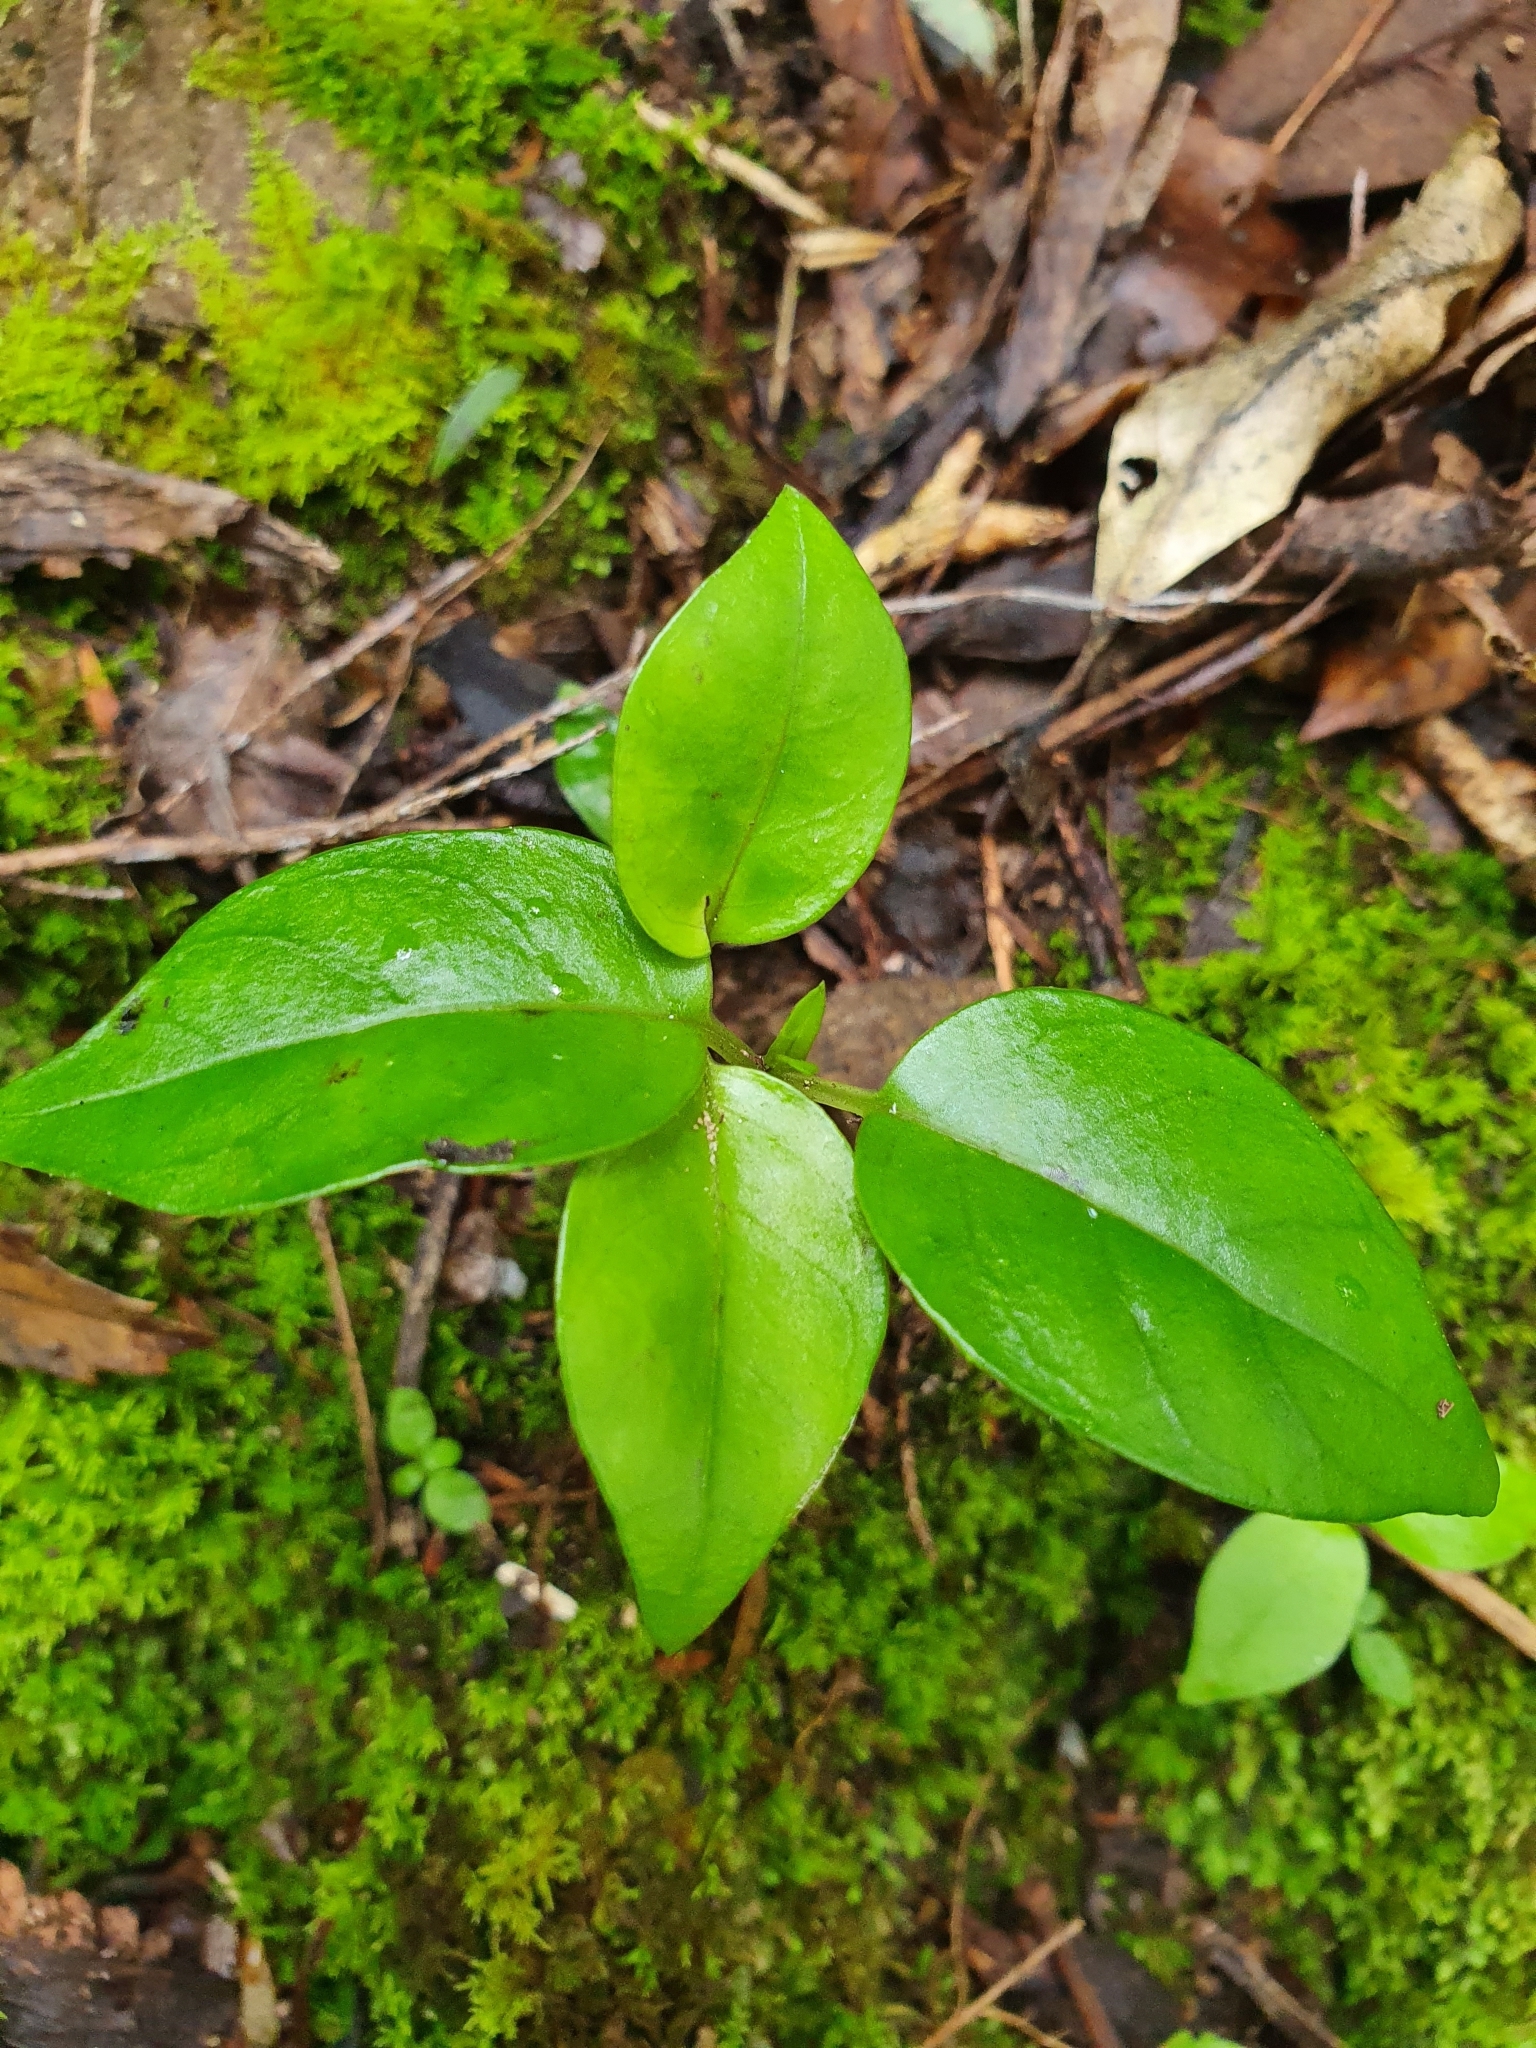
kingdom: Plantae
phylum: Tracheophyta
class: Magnoliopsida
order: Gentianales
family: Loganiaceae
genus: Geniostoma
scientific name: Geniostoma ligustrifolium
